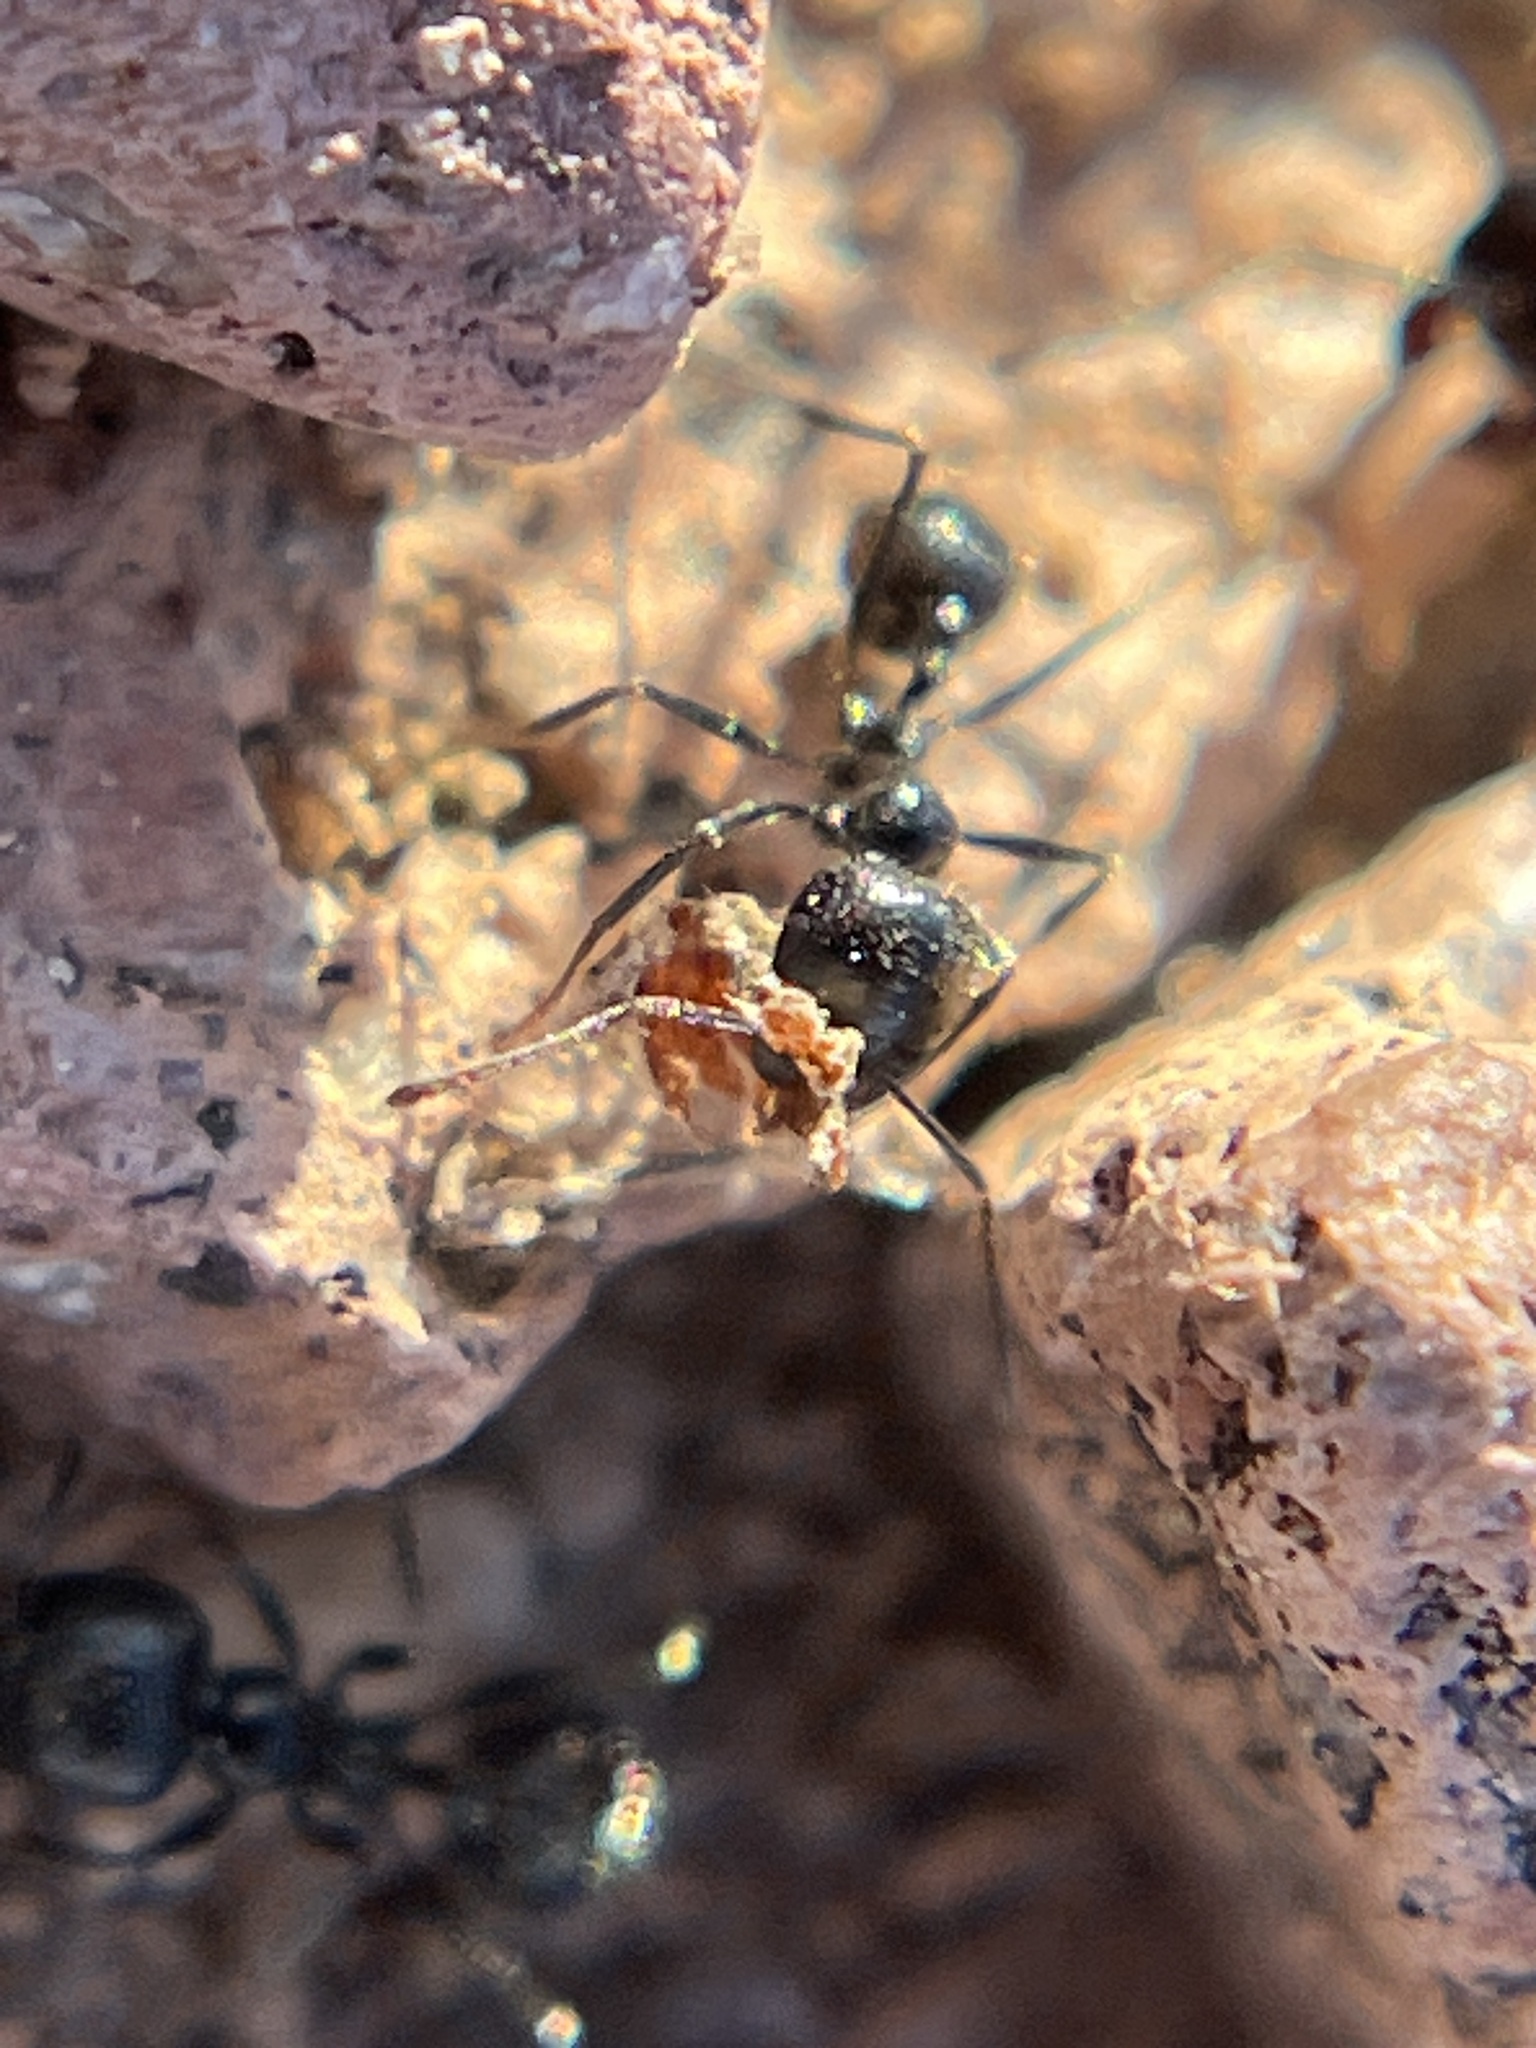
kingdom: Animalia
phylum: Arthropoda
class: Insecta
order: Hymenoptera
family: Formicidae
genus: Messor
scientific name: Messor pergandei
